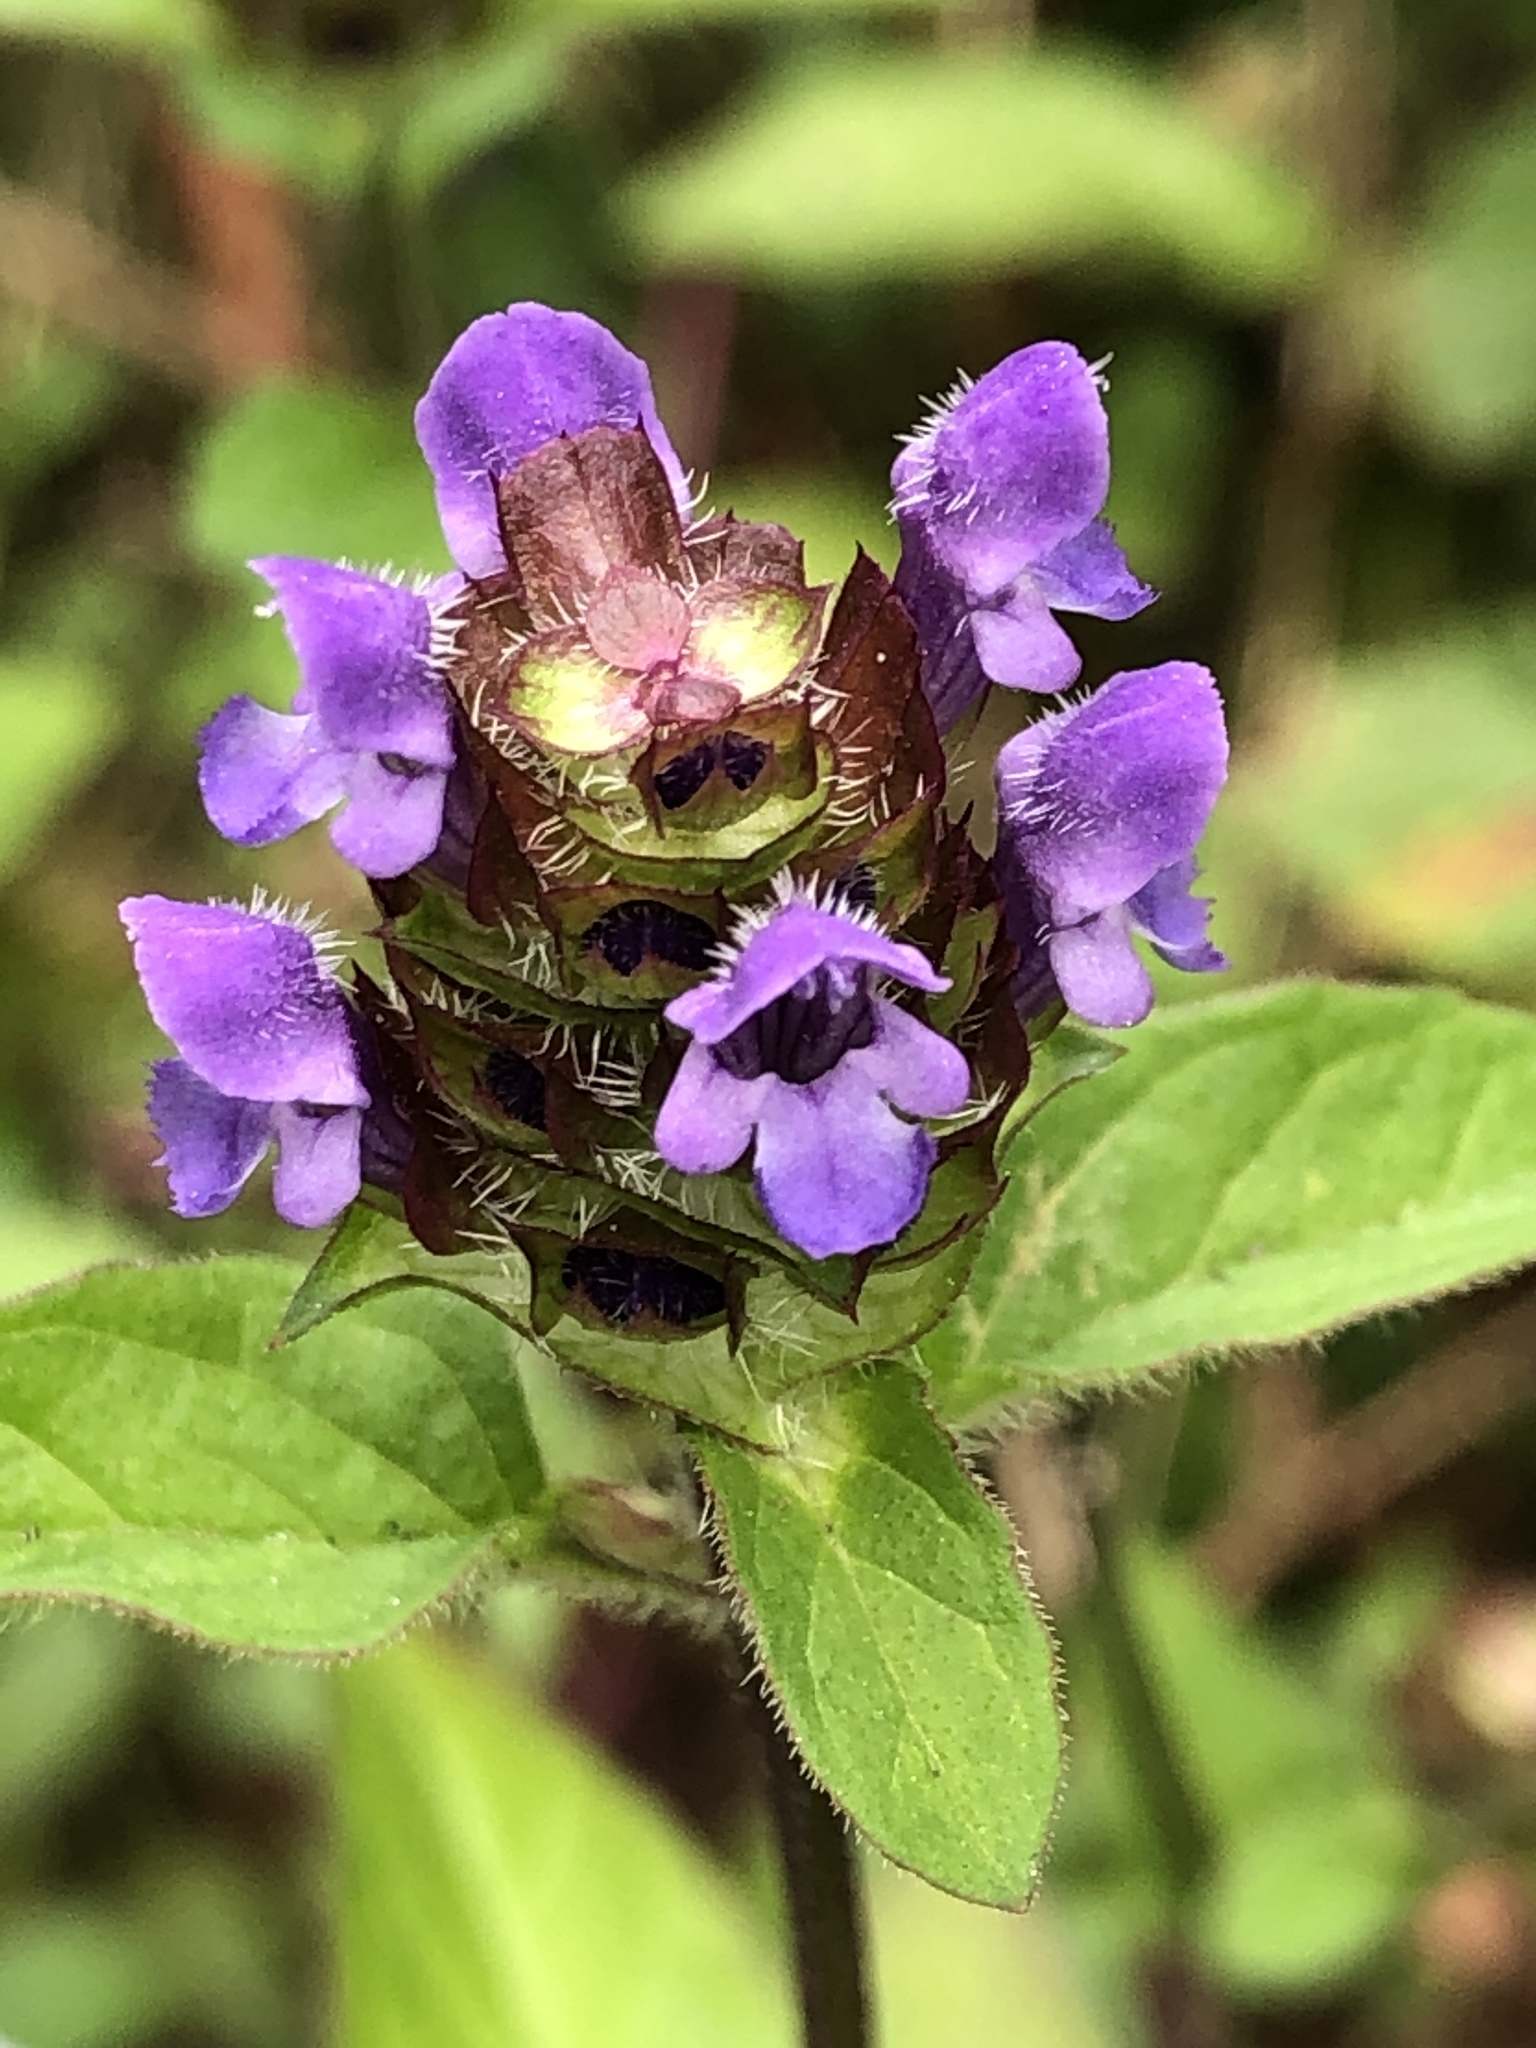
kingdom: Plantae
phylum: Tracheophyta
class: Magnoliopsida
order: Lamiales
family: Lamiaceae
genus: Prunella
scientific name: Prunella vulgaris
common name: Heal-all
